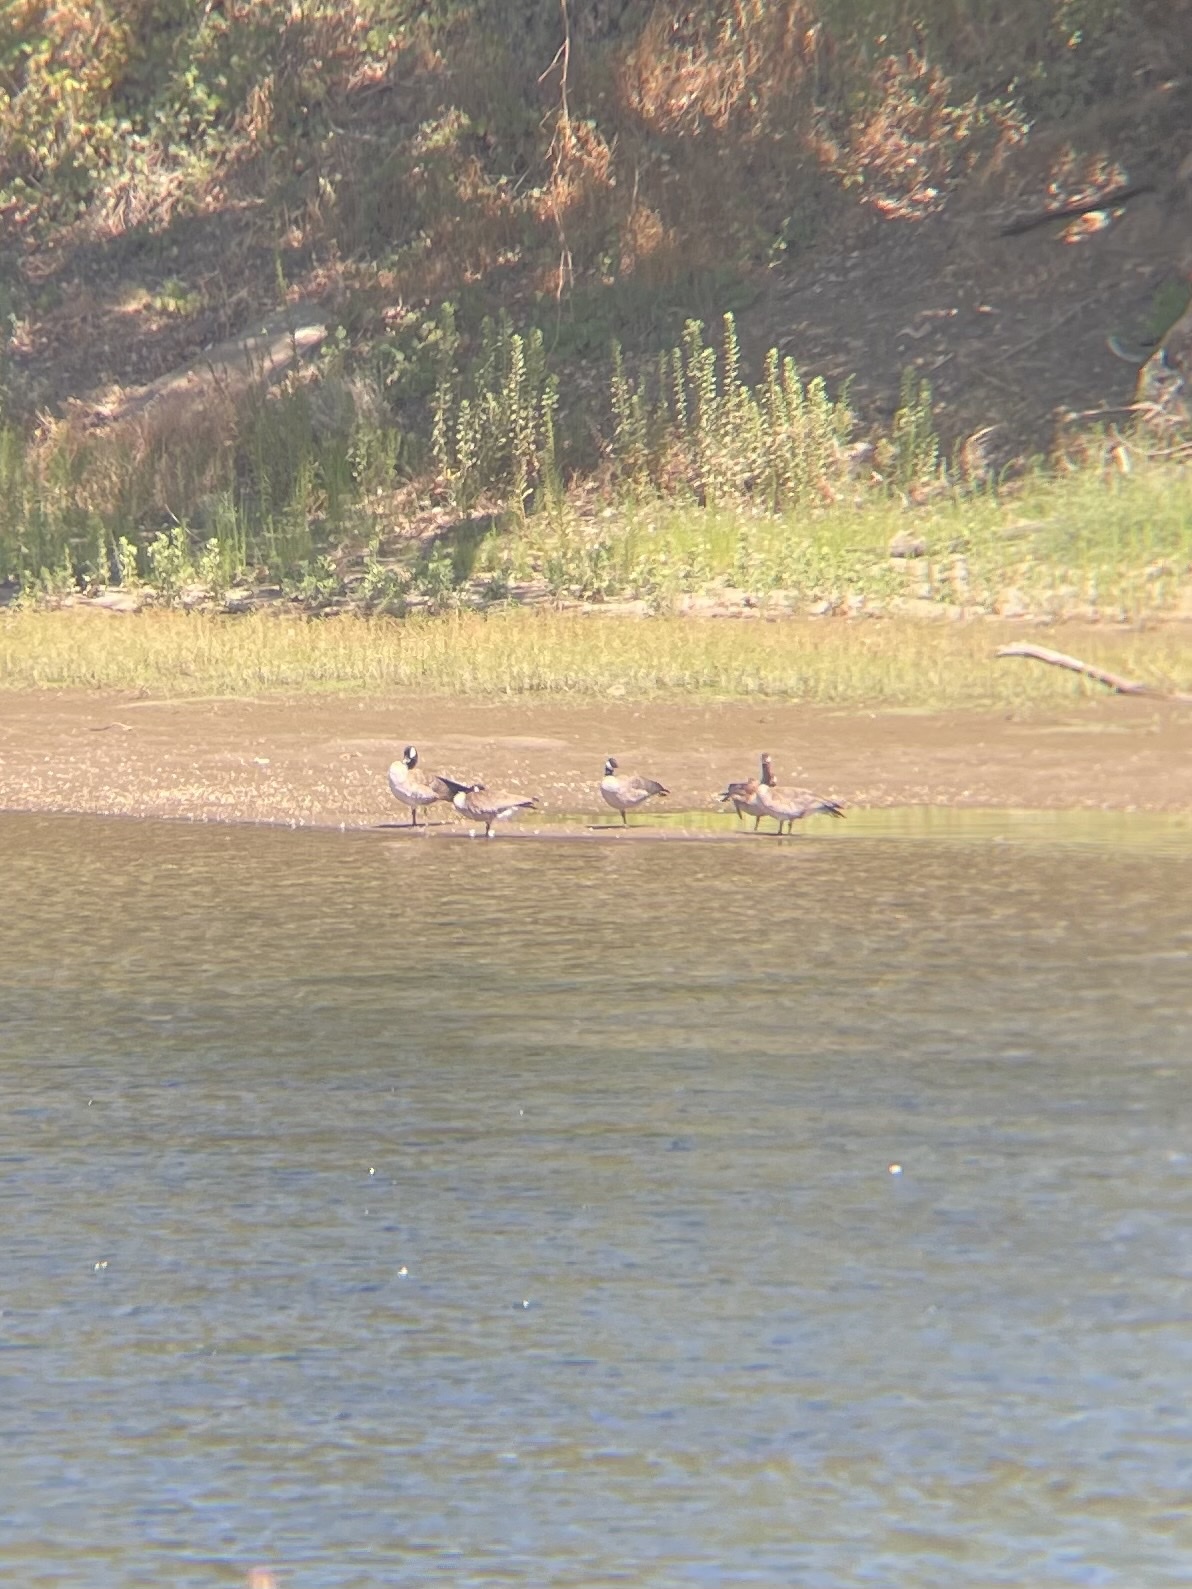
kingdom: Animalia
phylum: Chordata
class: Aves
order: Anseriformes
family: Anatidae
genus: Branta
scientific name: Branta canadensis
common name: Canada goose
